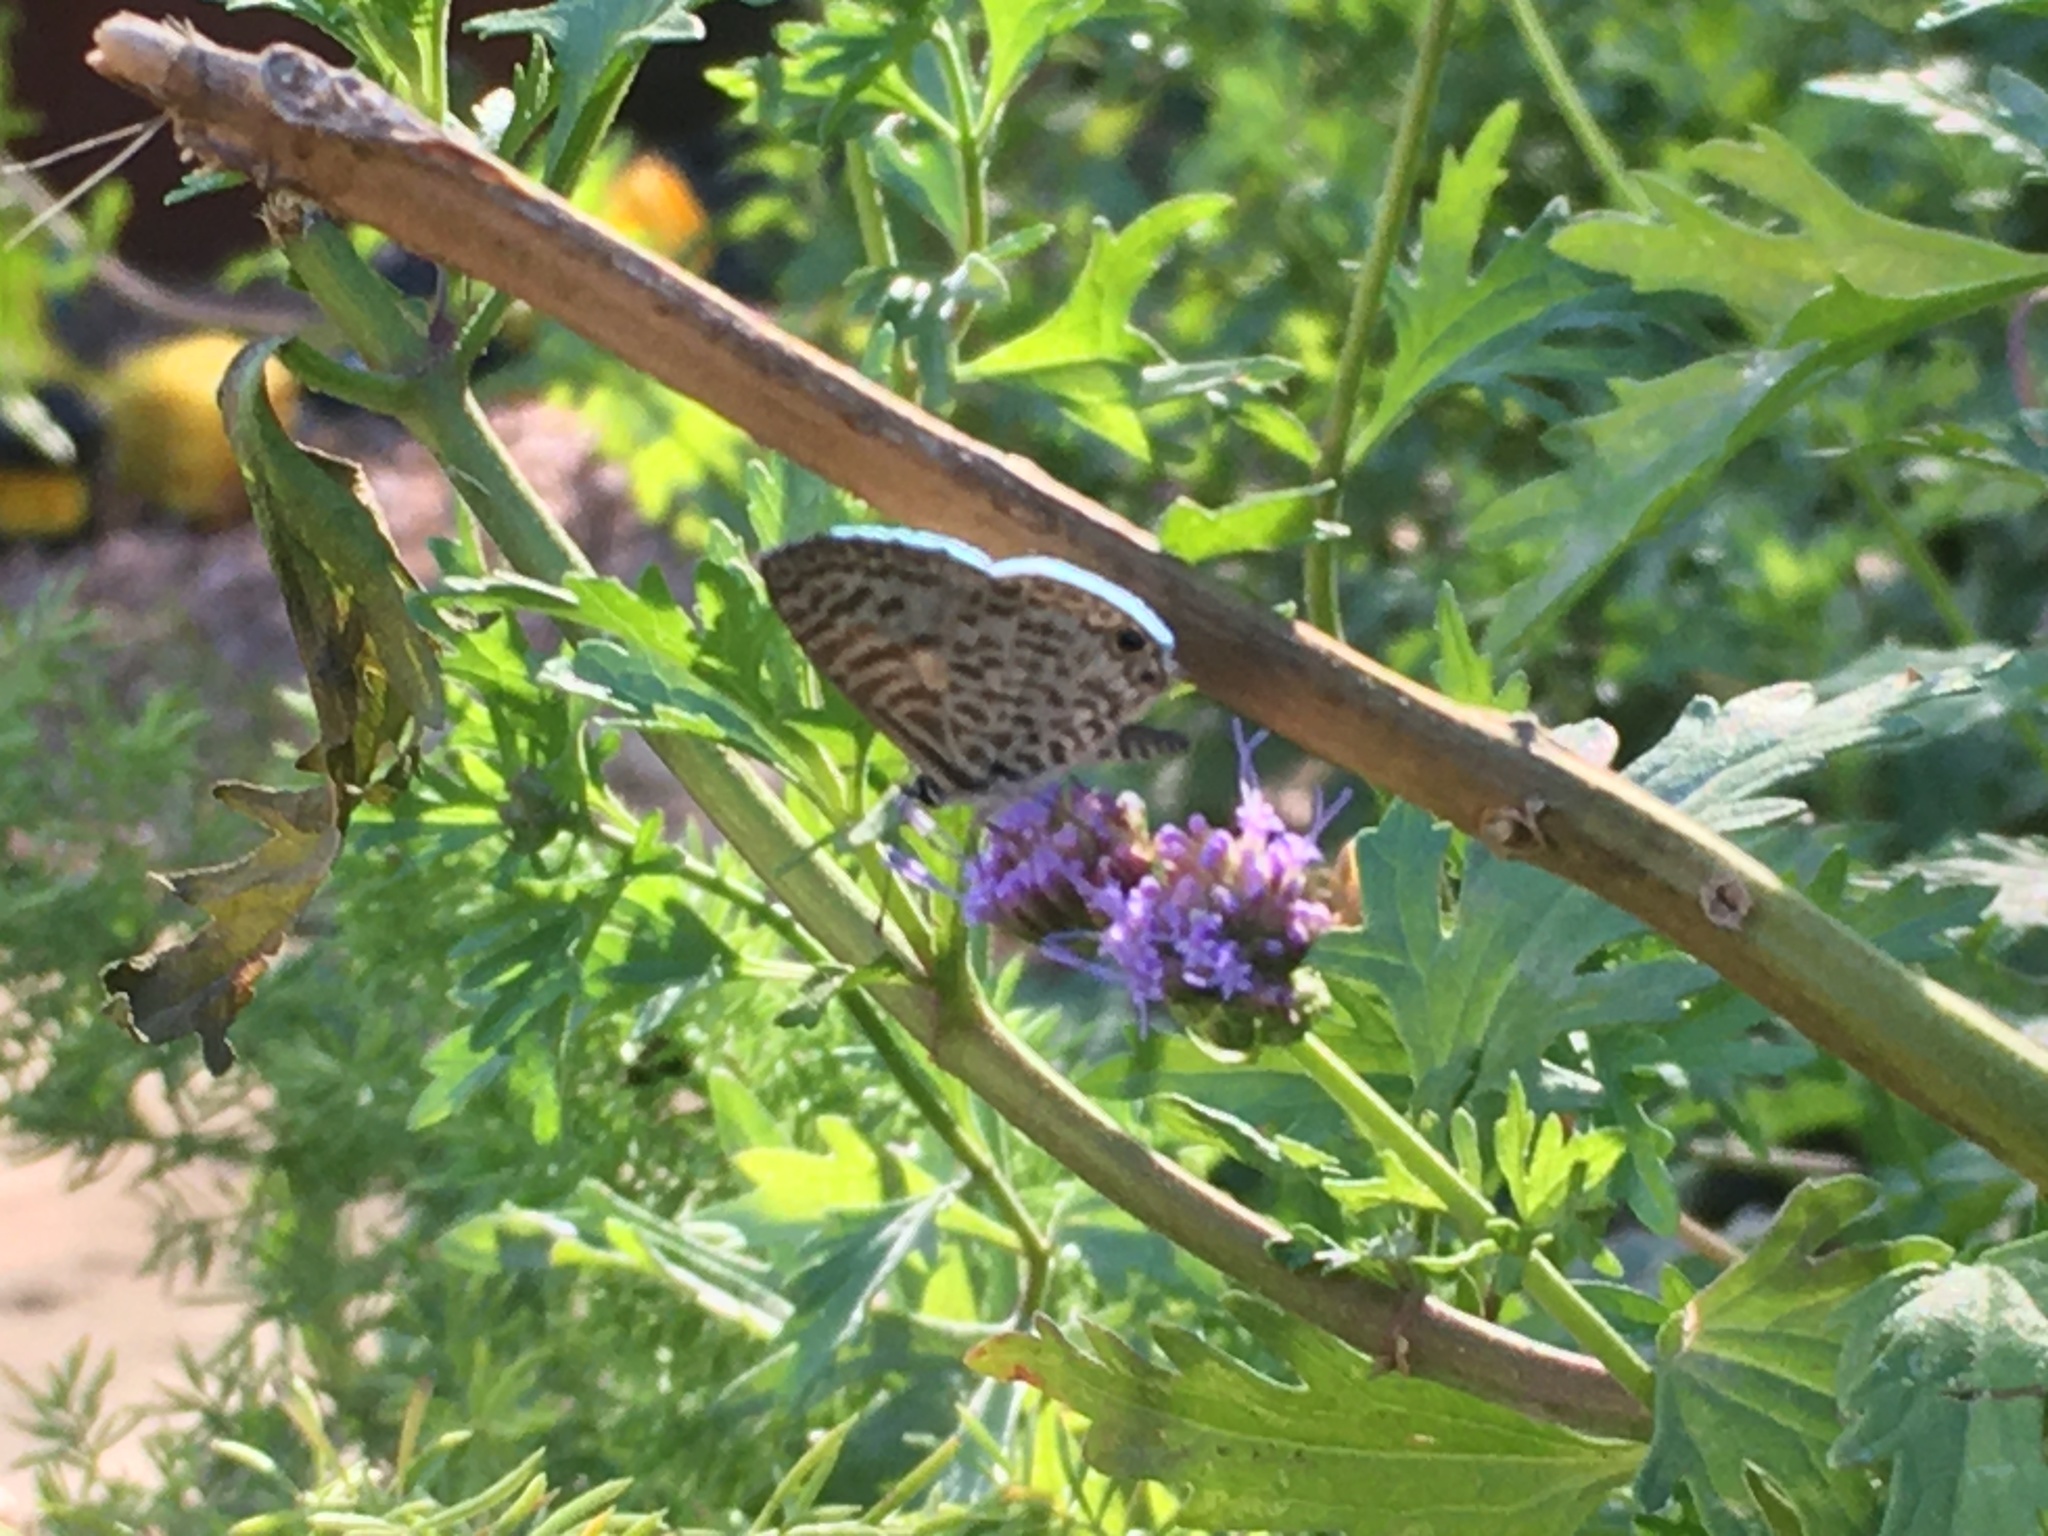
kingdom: Animalia
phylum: Arthropoda
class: Insecta
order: Lepidoptera
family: Lycaenidae
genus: Leptotes
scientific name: Leptotes cassius
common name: Cassius blue
